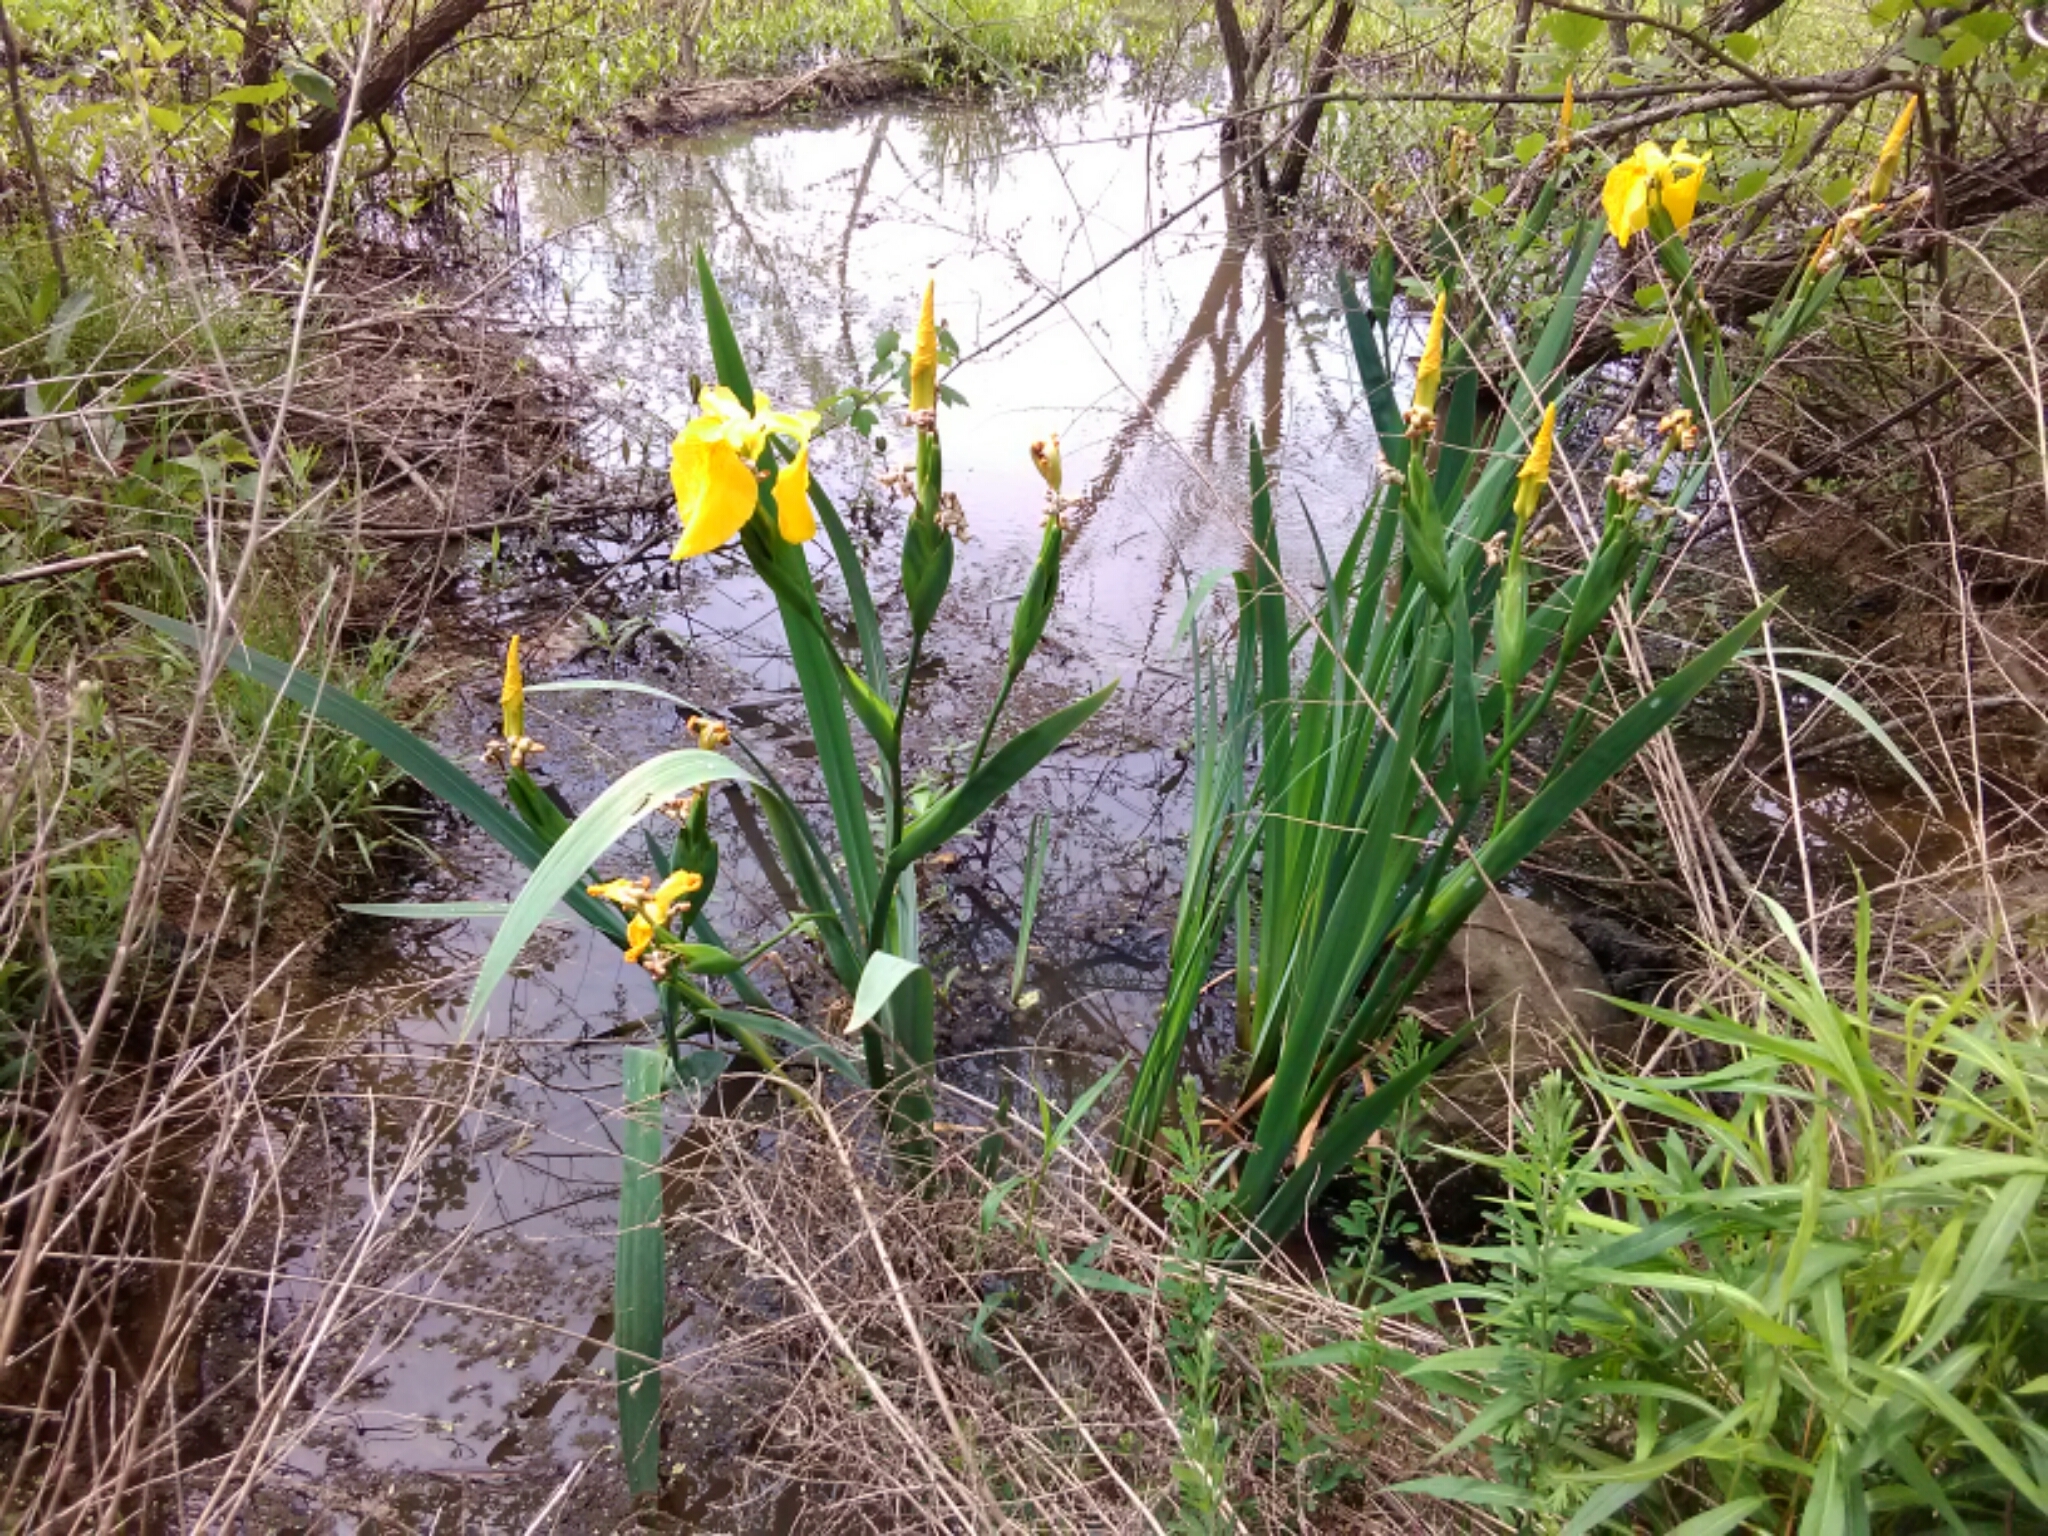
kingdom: Plantae
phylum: Tracheophyta
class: Liliopsida
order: Asparagales
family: Iridaceae
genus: Iris
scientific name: Iris pseudacorus
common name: Yellow flag
